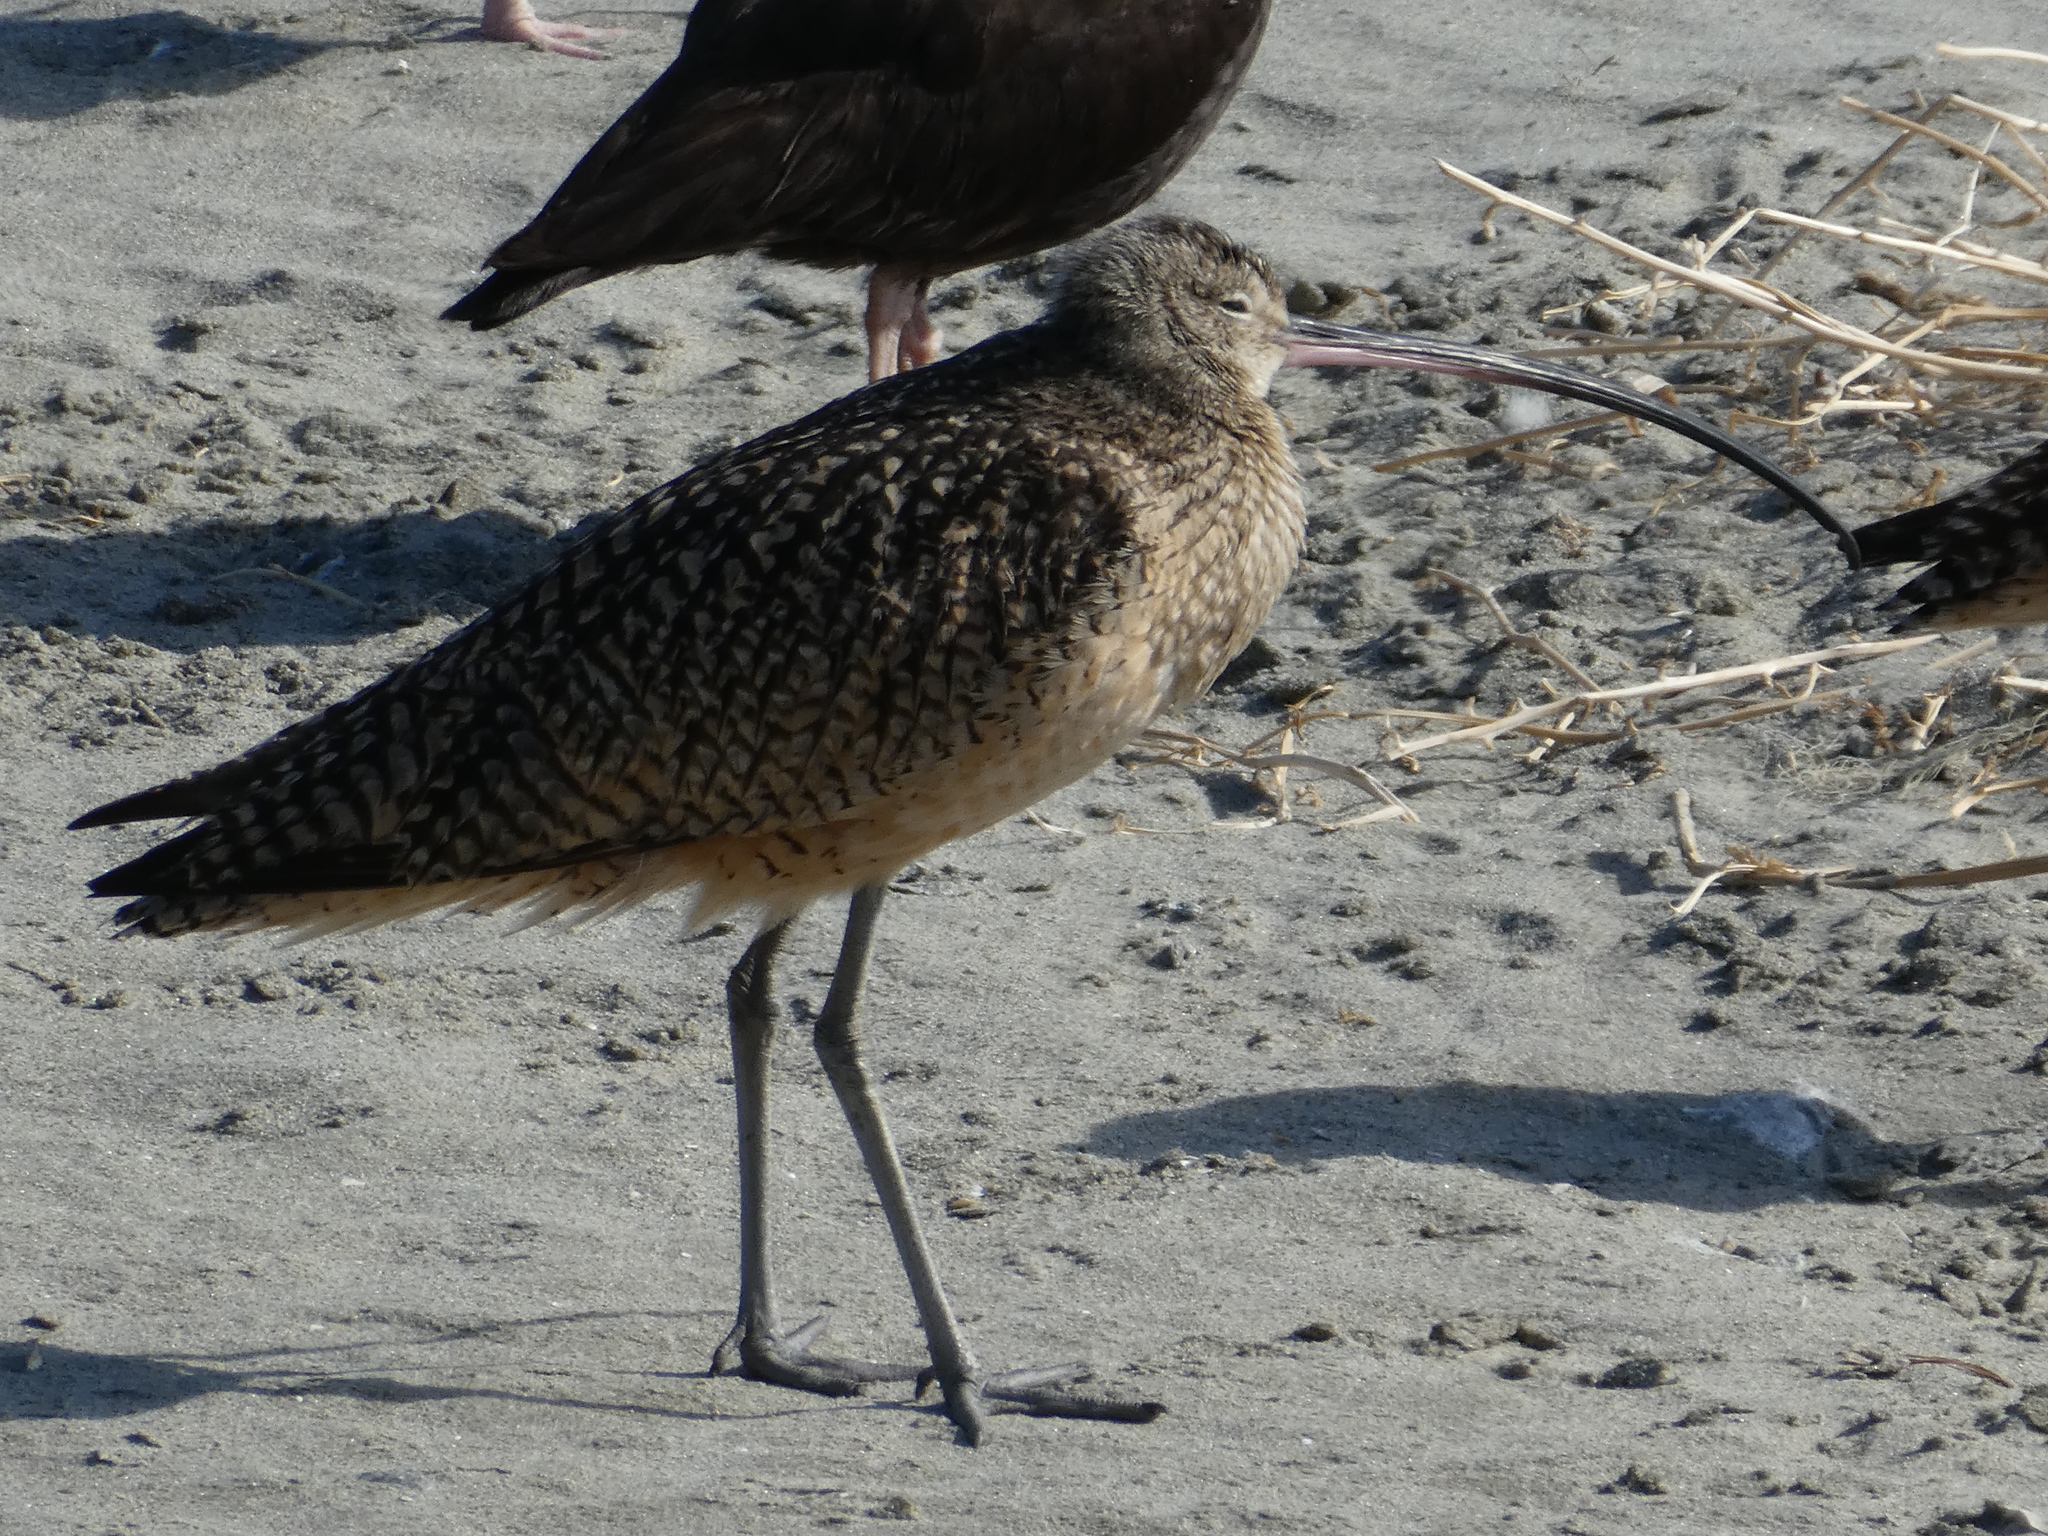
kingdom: Animalia
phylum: Chordata
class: Aves
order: Charadriiformes
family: Scolopacidae
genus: Numenius
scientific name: Numenius americanus
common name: Long-billed curlew
